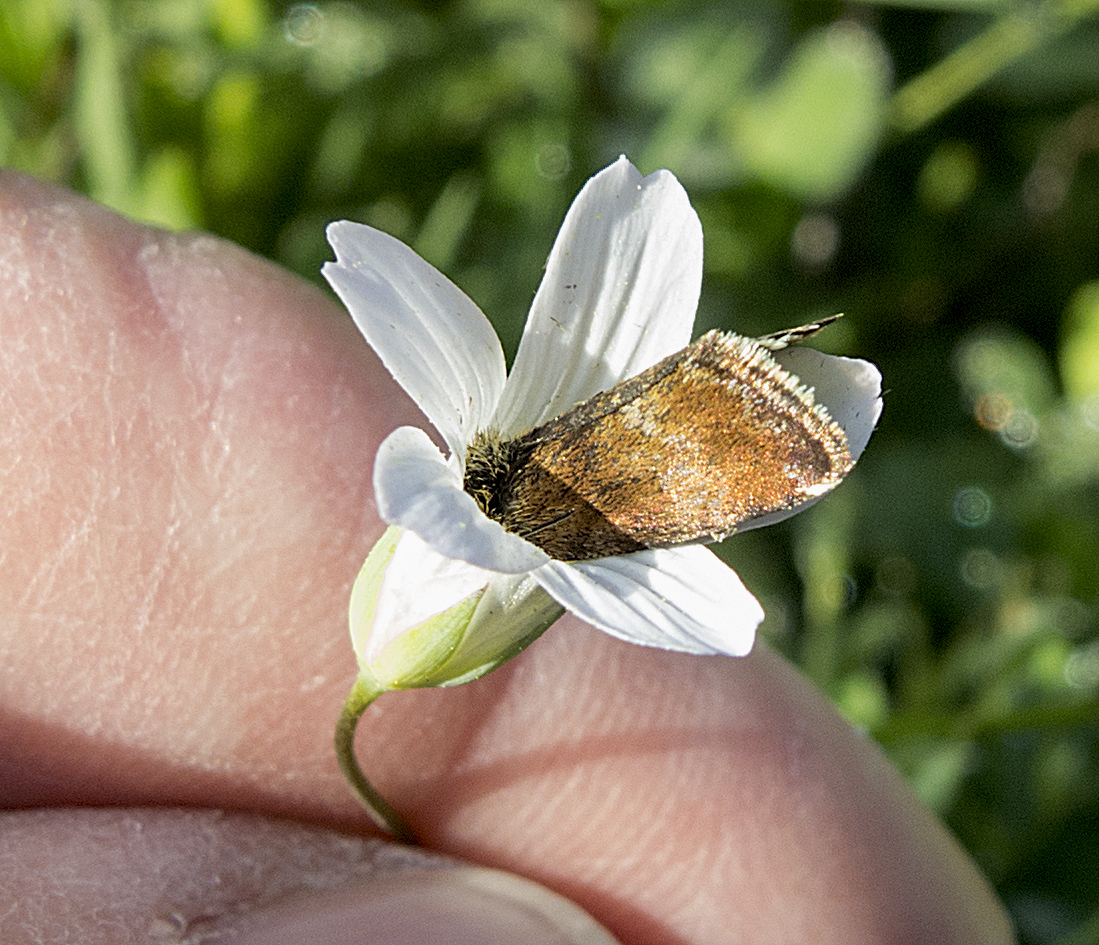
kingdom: Animalia
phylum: Arthropoda
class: Insecta
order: Lepidoptera
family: Noctuidae
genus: Panemeria
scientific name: Panemeria tenebrata
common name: Small yellow underwing
